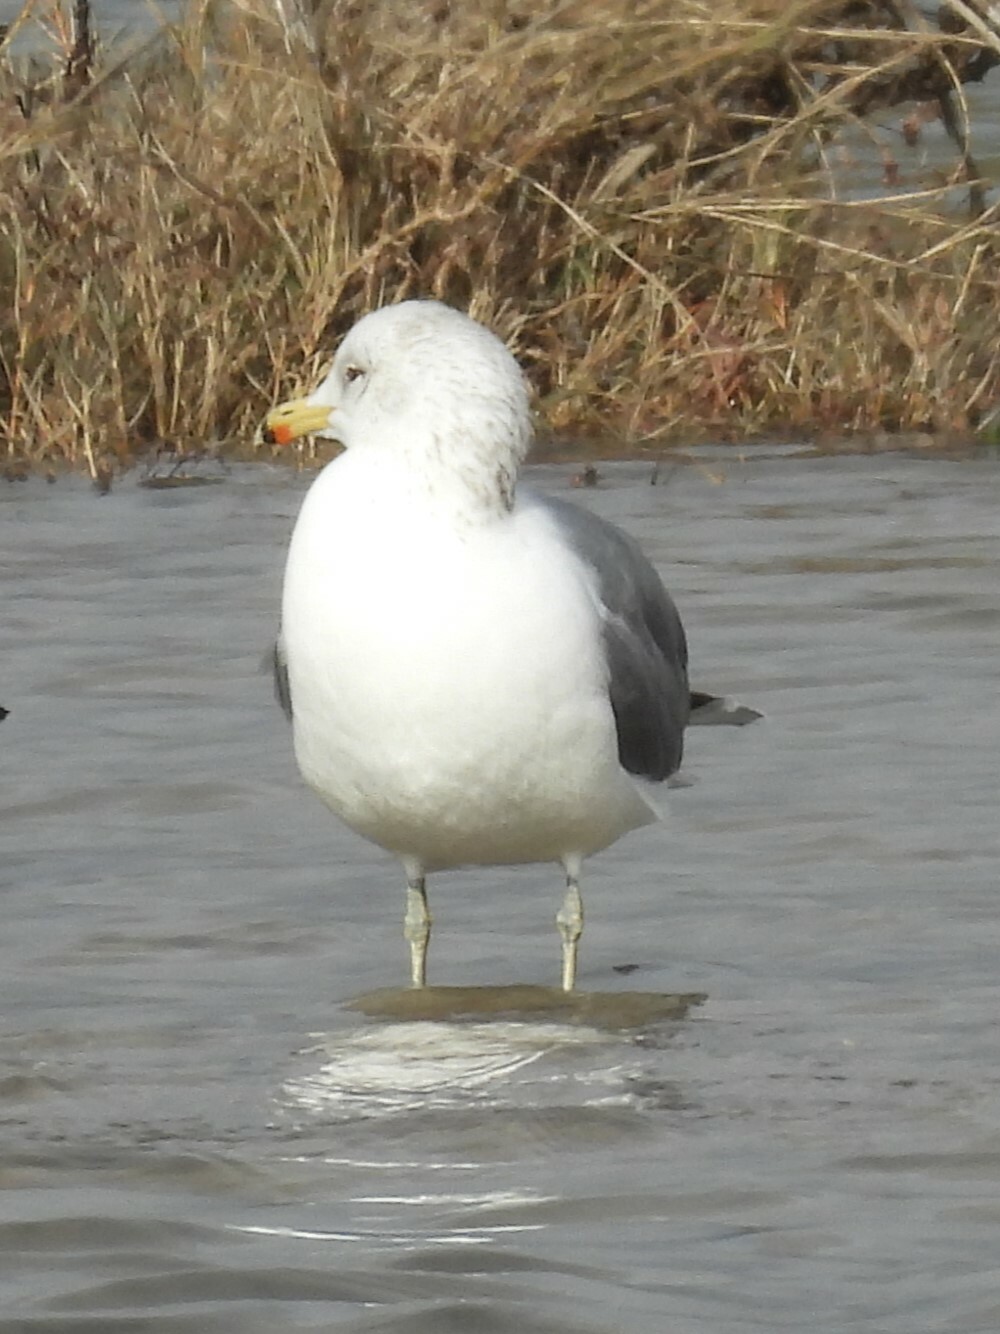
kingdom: Animalia
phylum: Chordata
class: Aves
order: Charadriiformes
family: Laridae
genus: Larus
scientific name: Larus delawarensis
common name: Ring-billed gull
